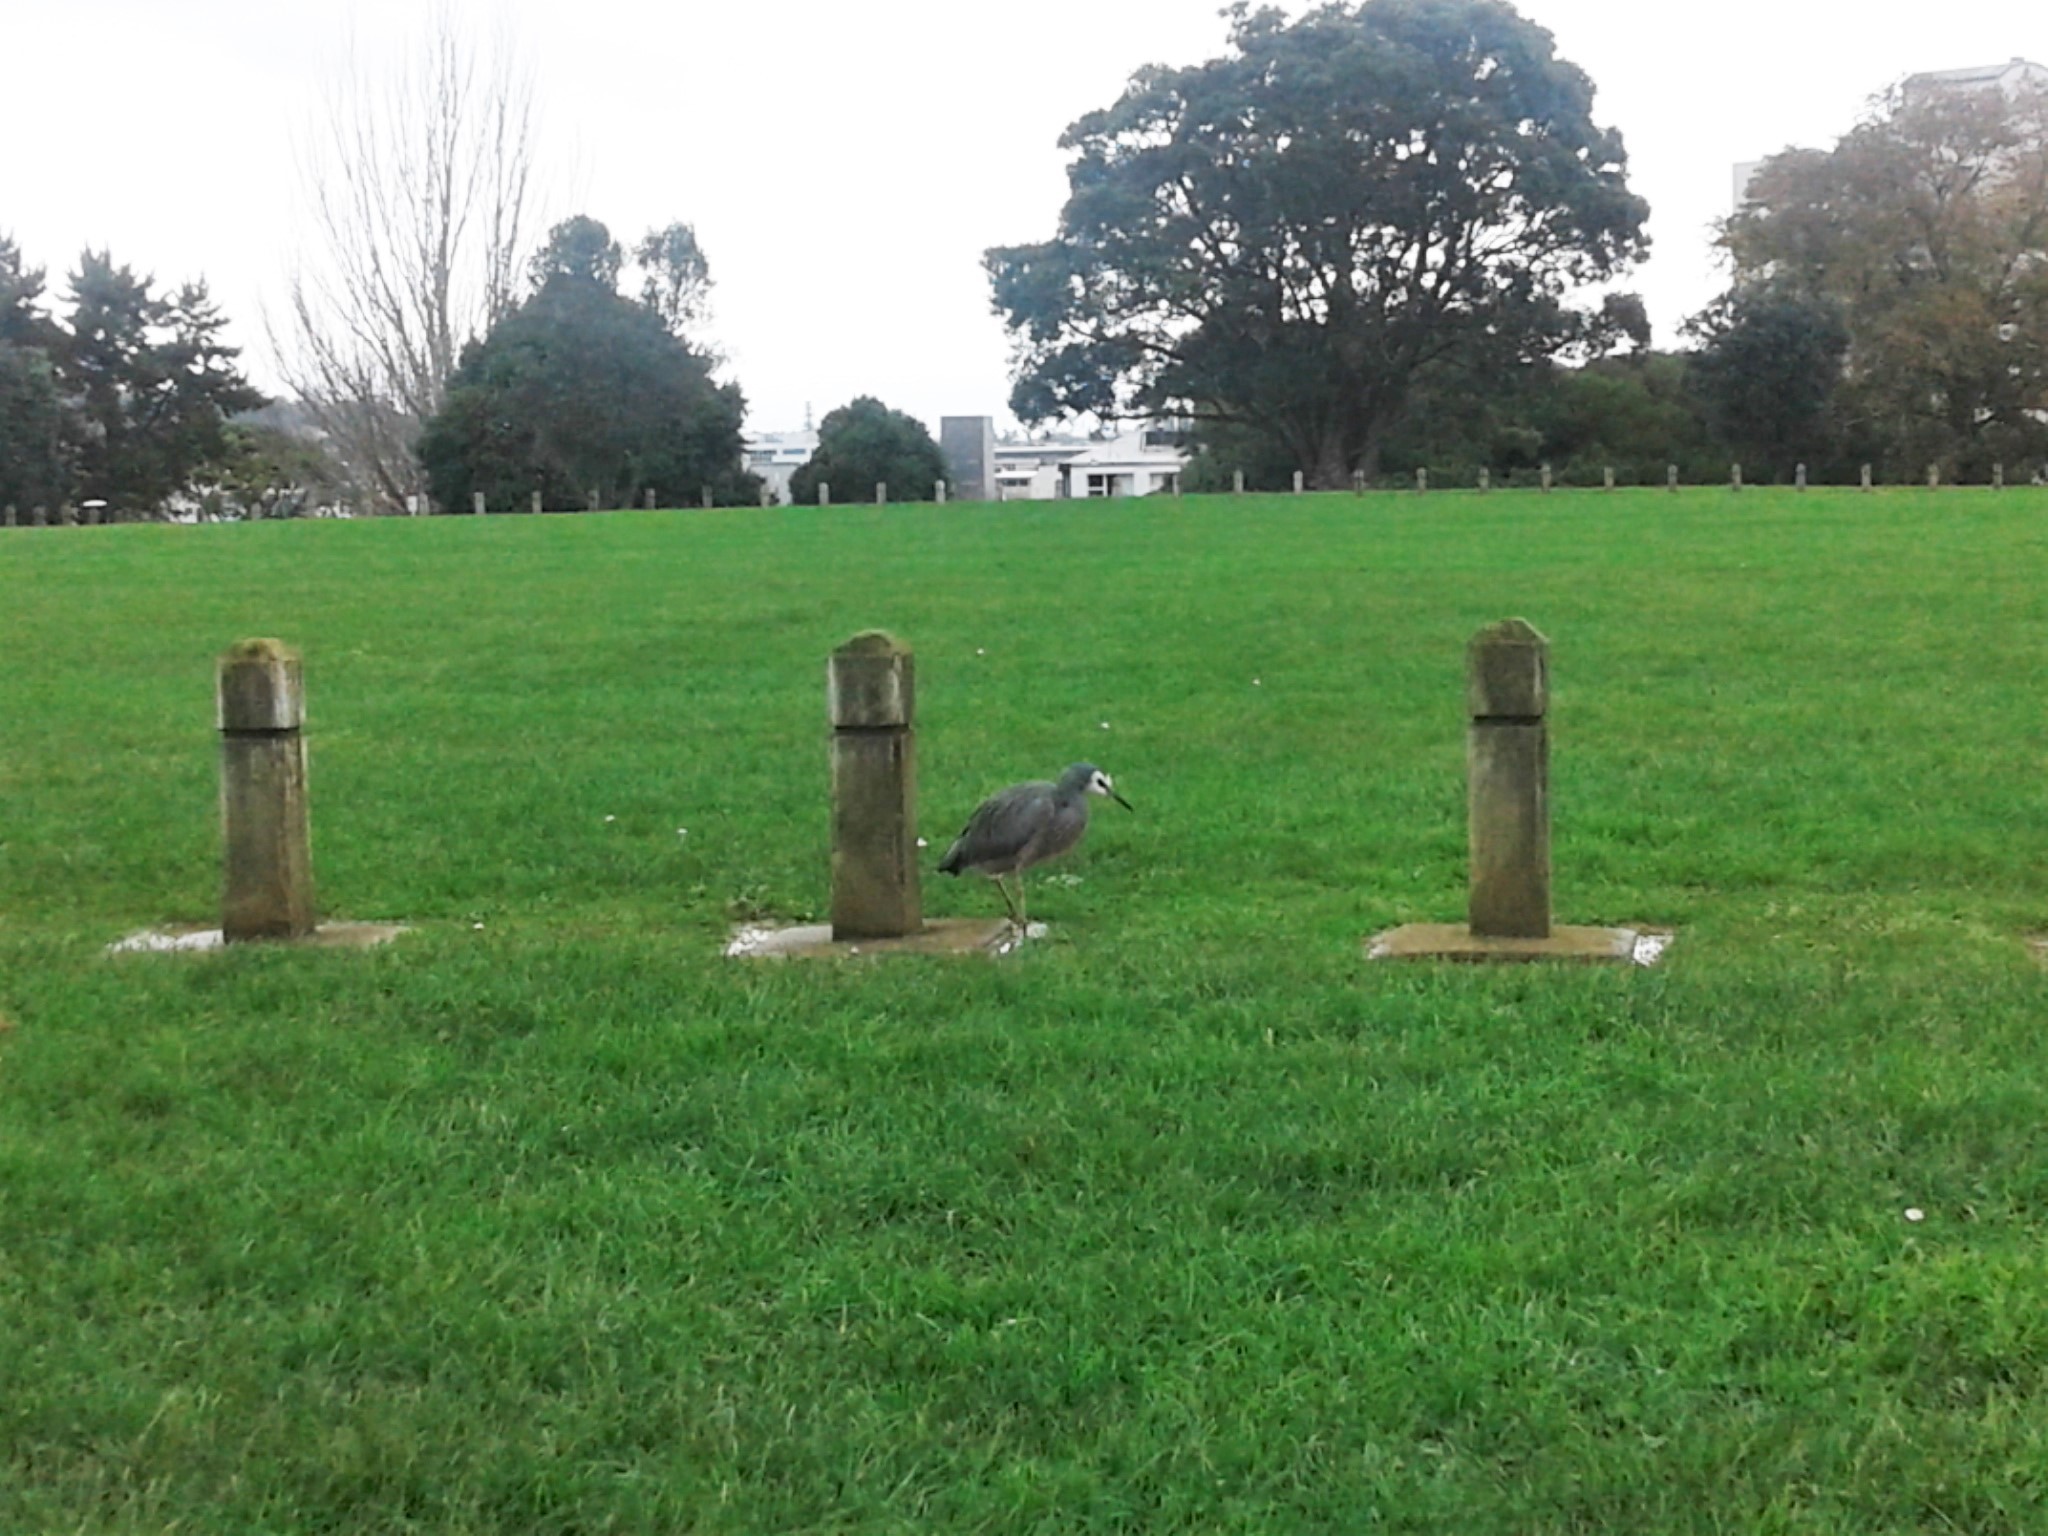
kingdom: Animalia
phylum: Chordata
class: Aves
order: Pelecaniformes
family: Ardeidae
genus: Egretta
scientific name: Egretta novaehollandiae
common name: White-faced heron
